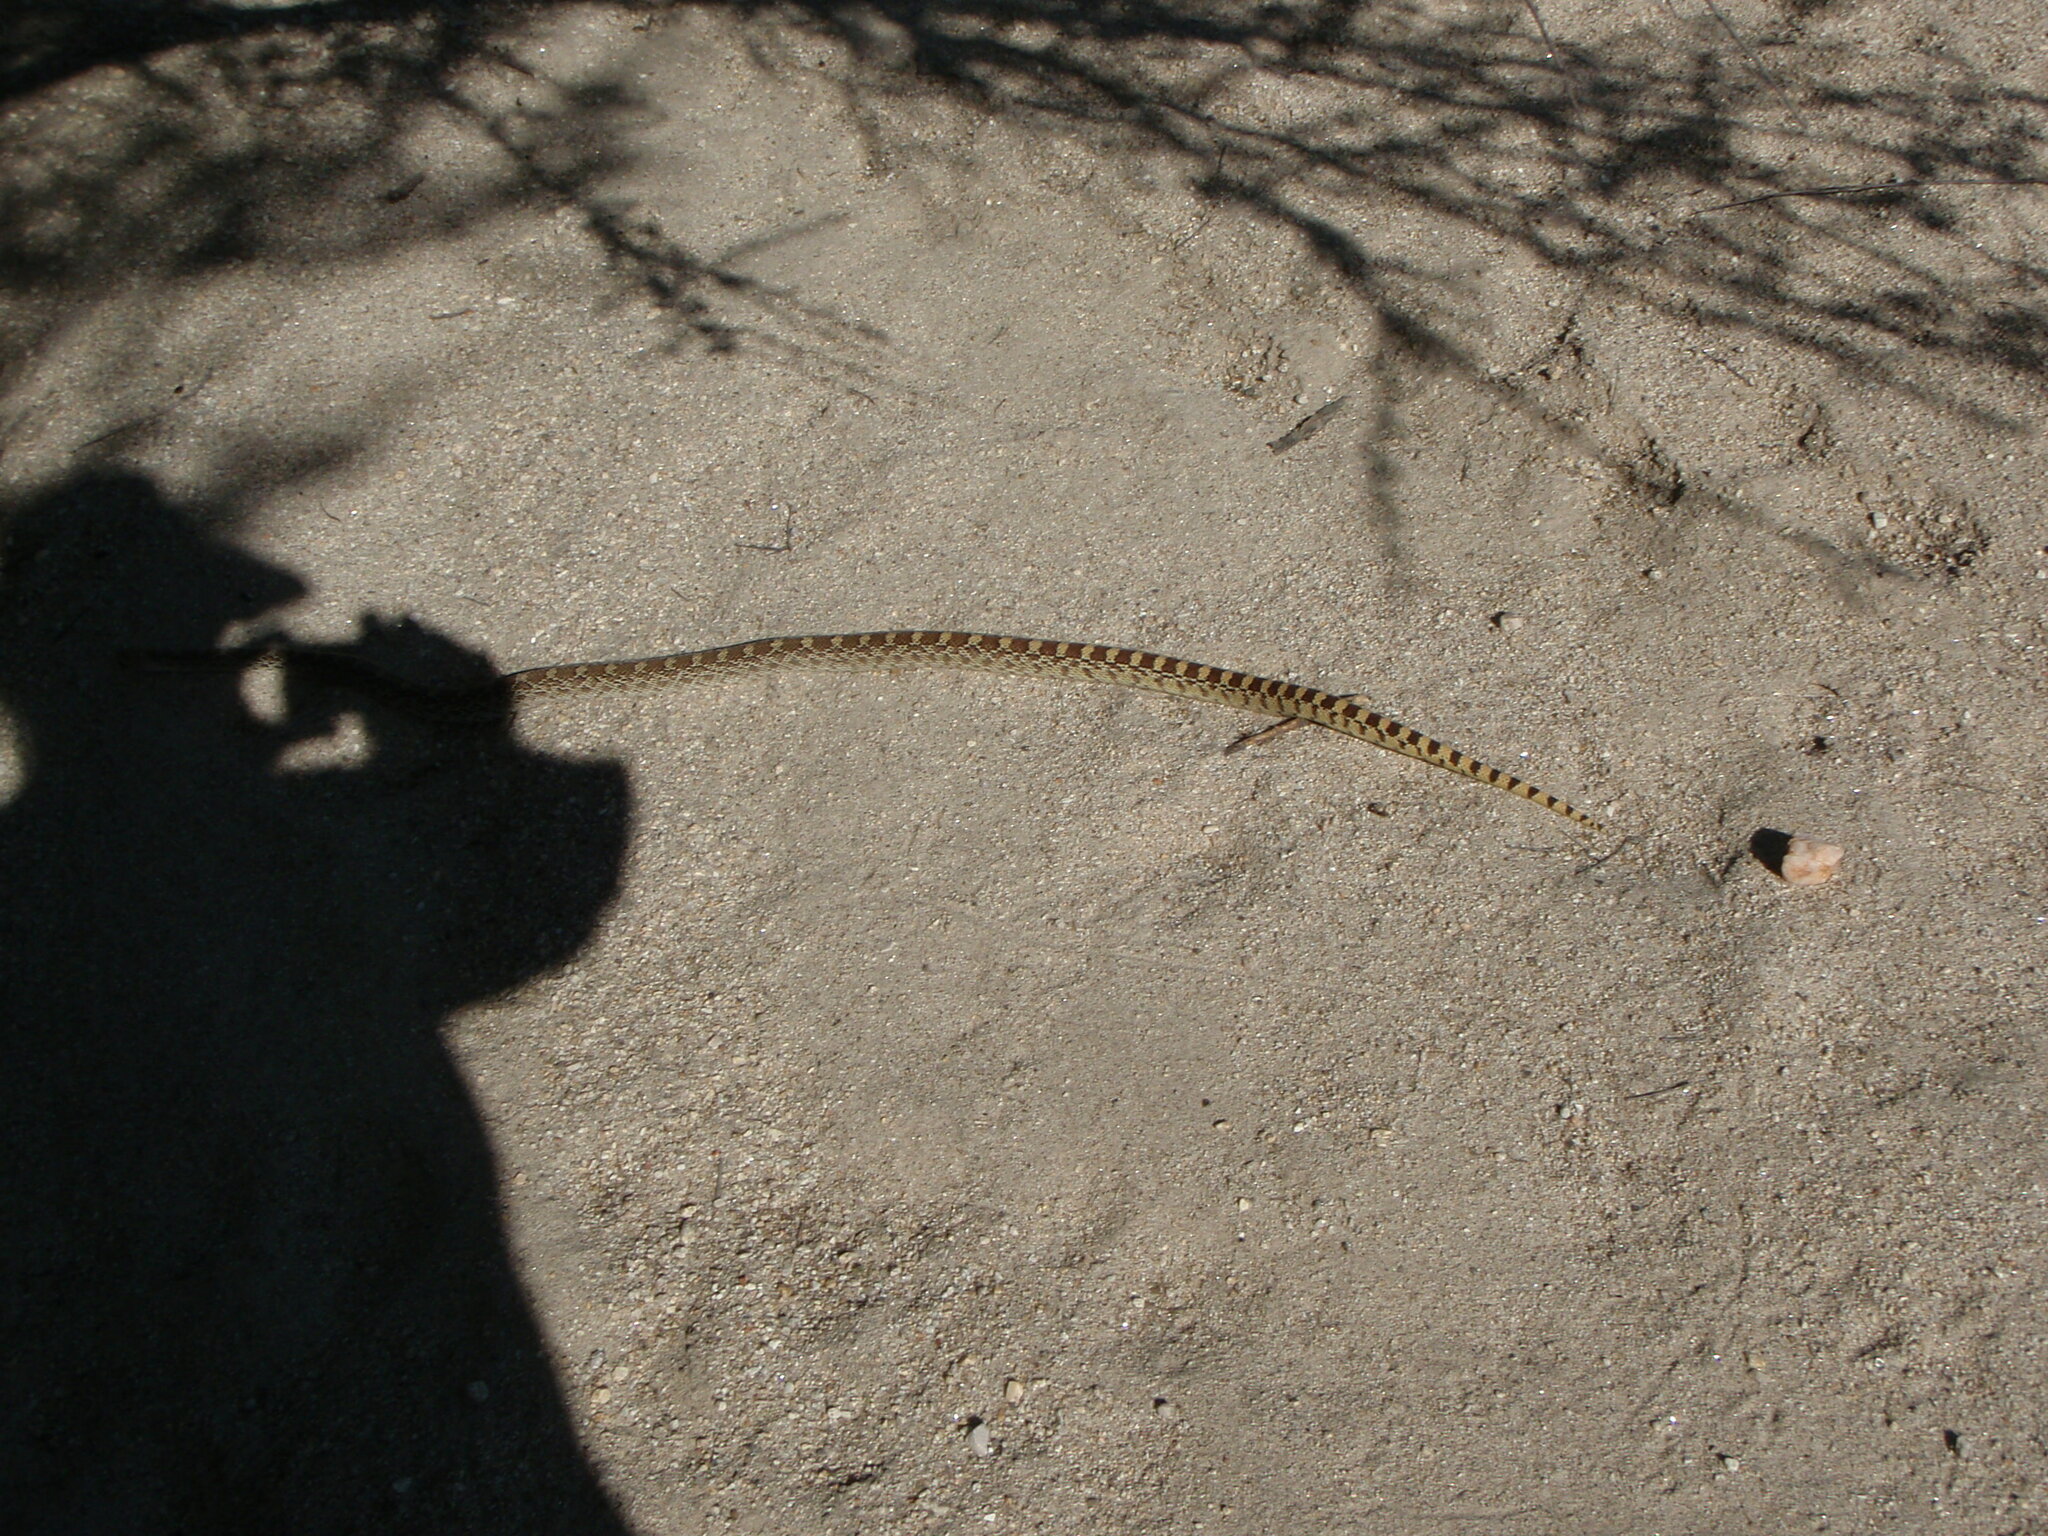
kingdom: Animalia
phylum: Chordata
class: Squamata
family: Colubridae
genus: Pituophis
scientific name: Pituophis catenifer
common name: Gopher snake
